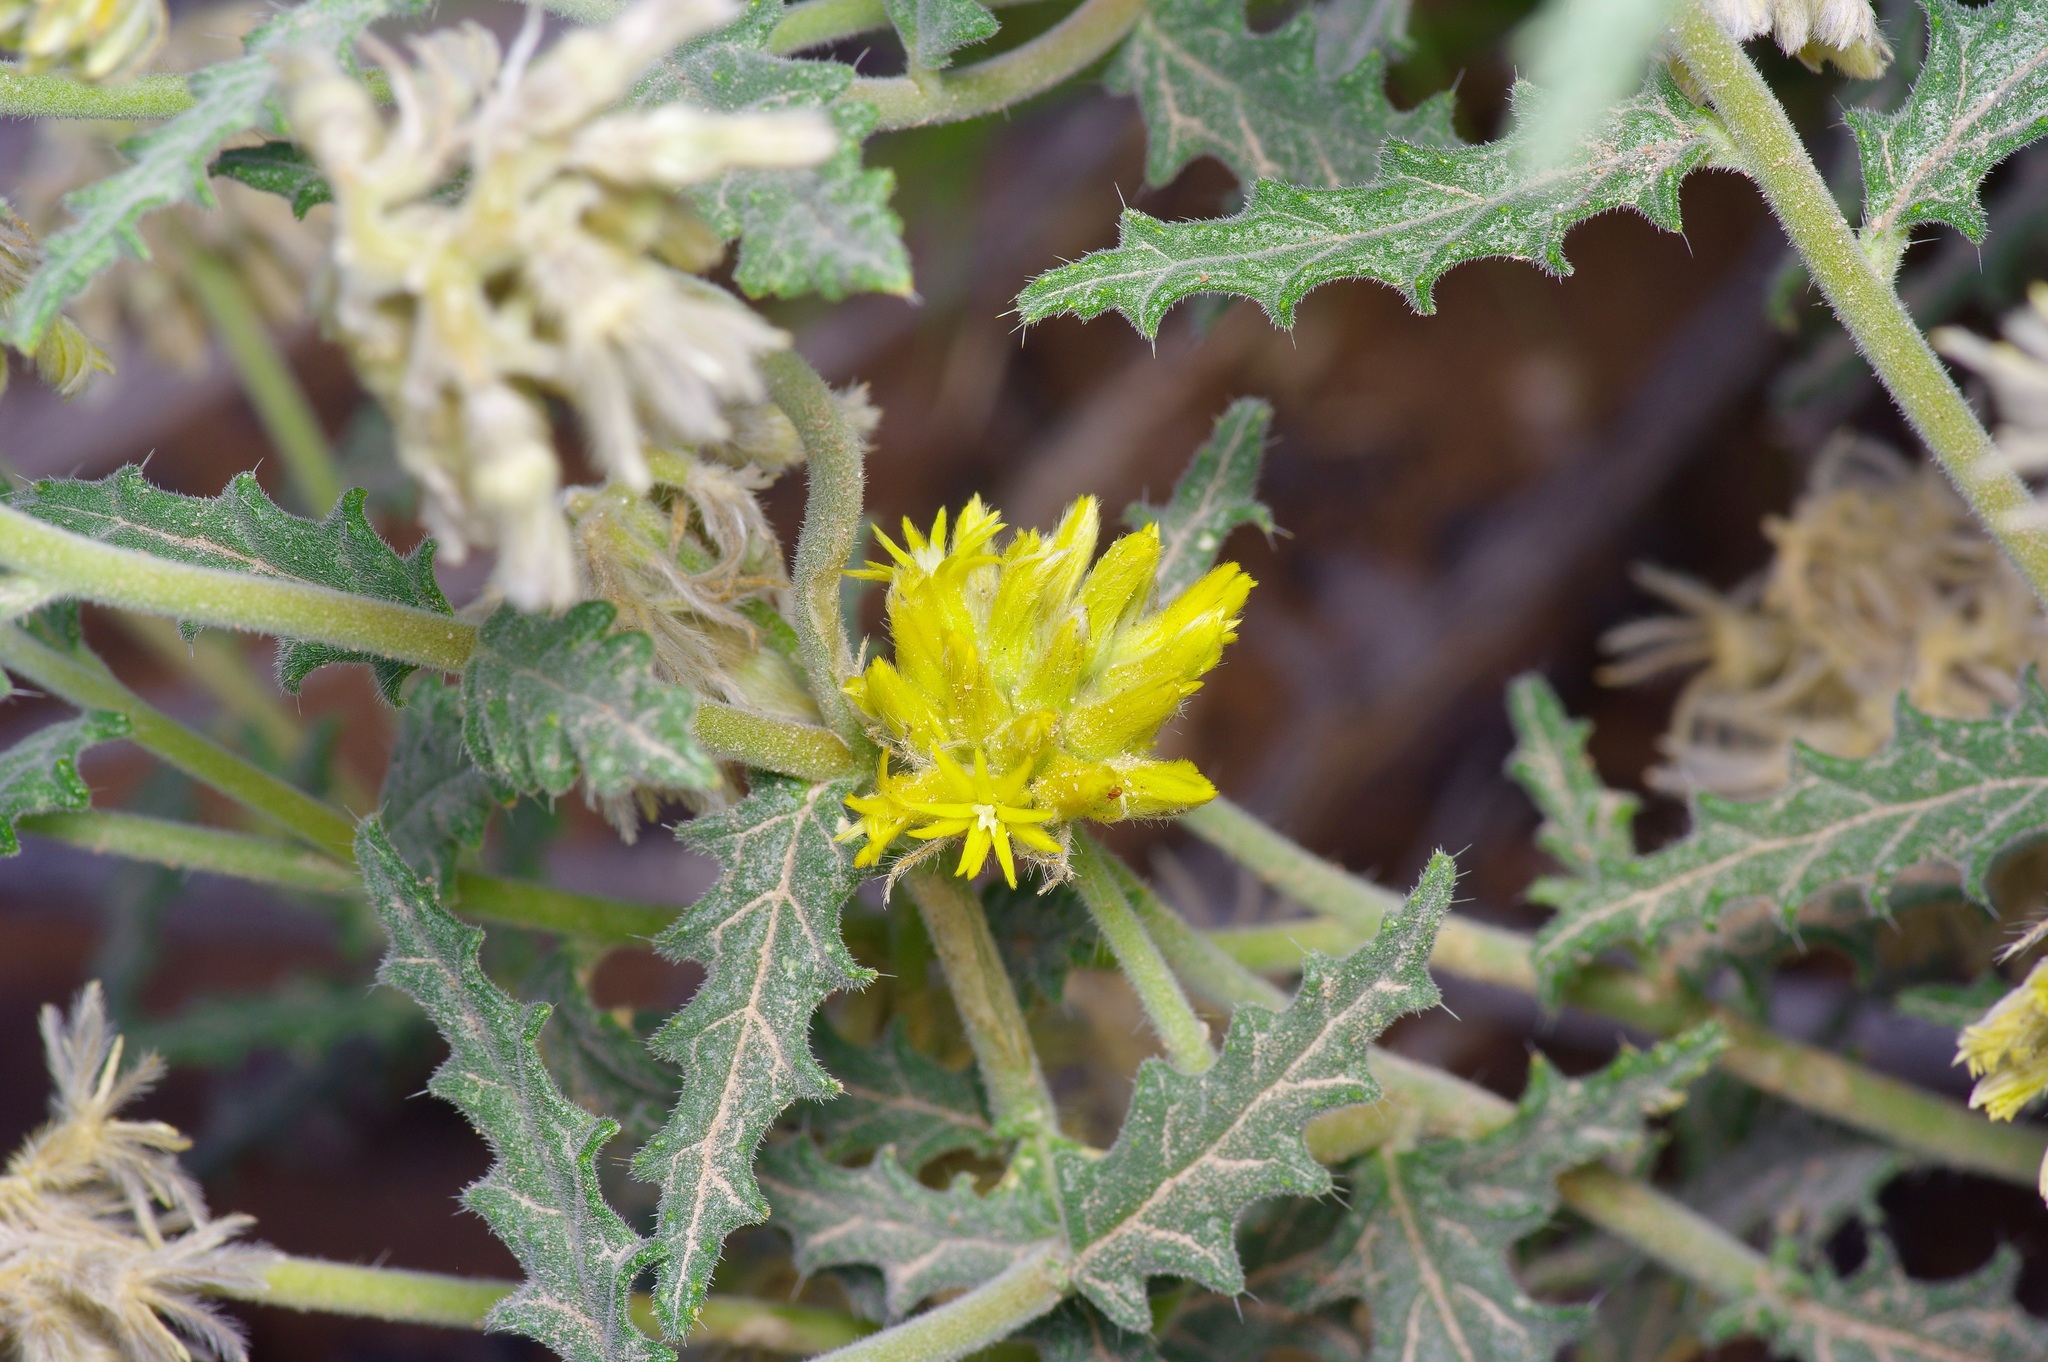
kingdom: Plantae
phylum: Tracheophyta
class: Magnoliopsida
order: Cornales
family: Loasaceae
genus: Cevallia
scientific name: Cevallia sinuata
